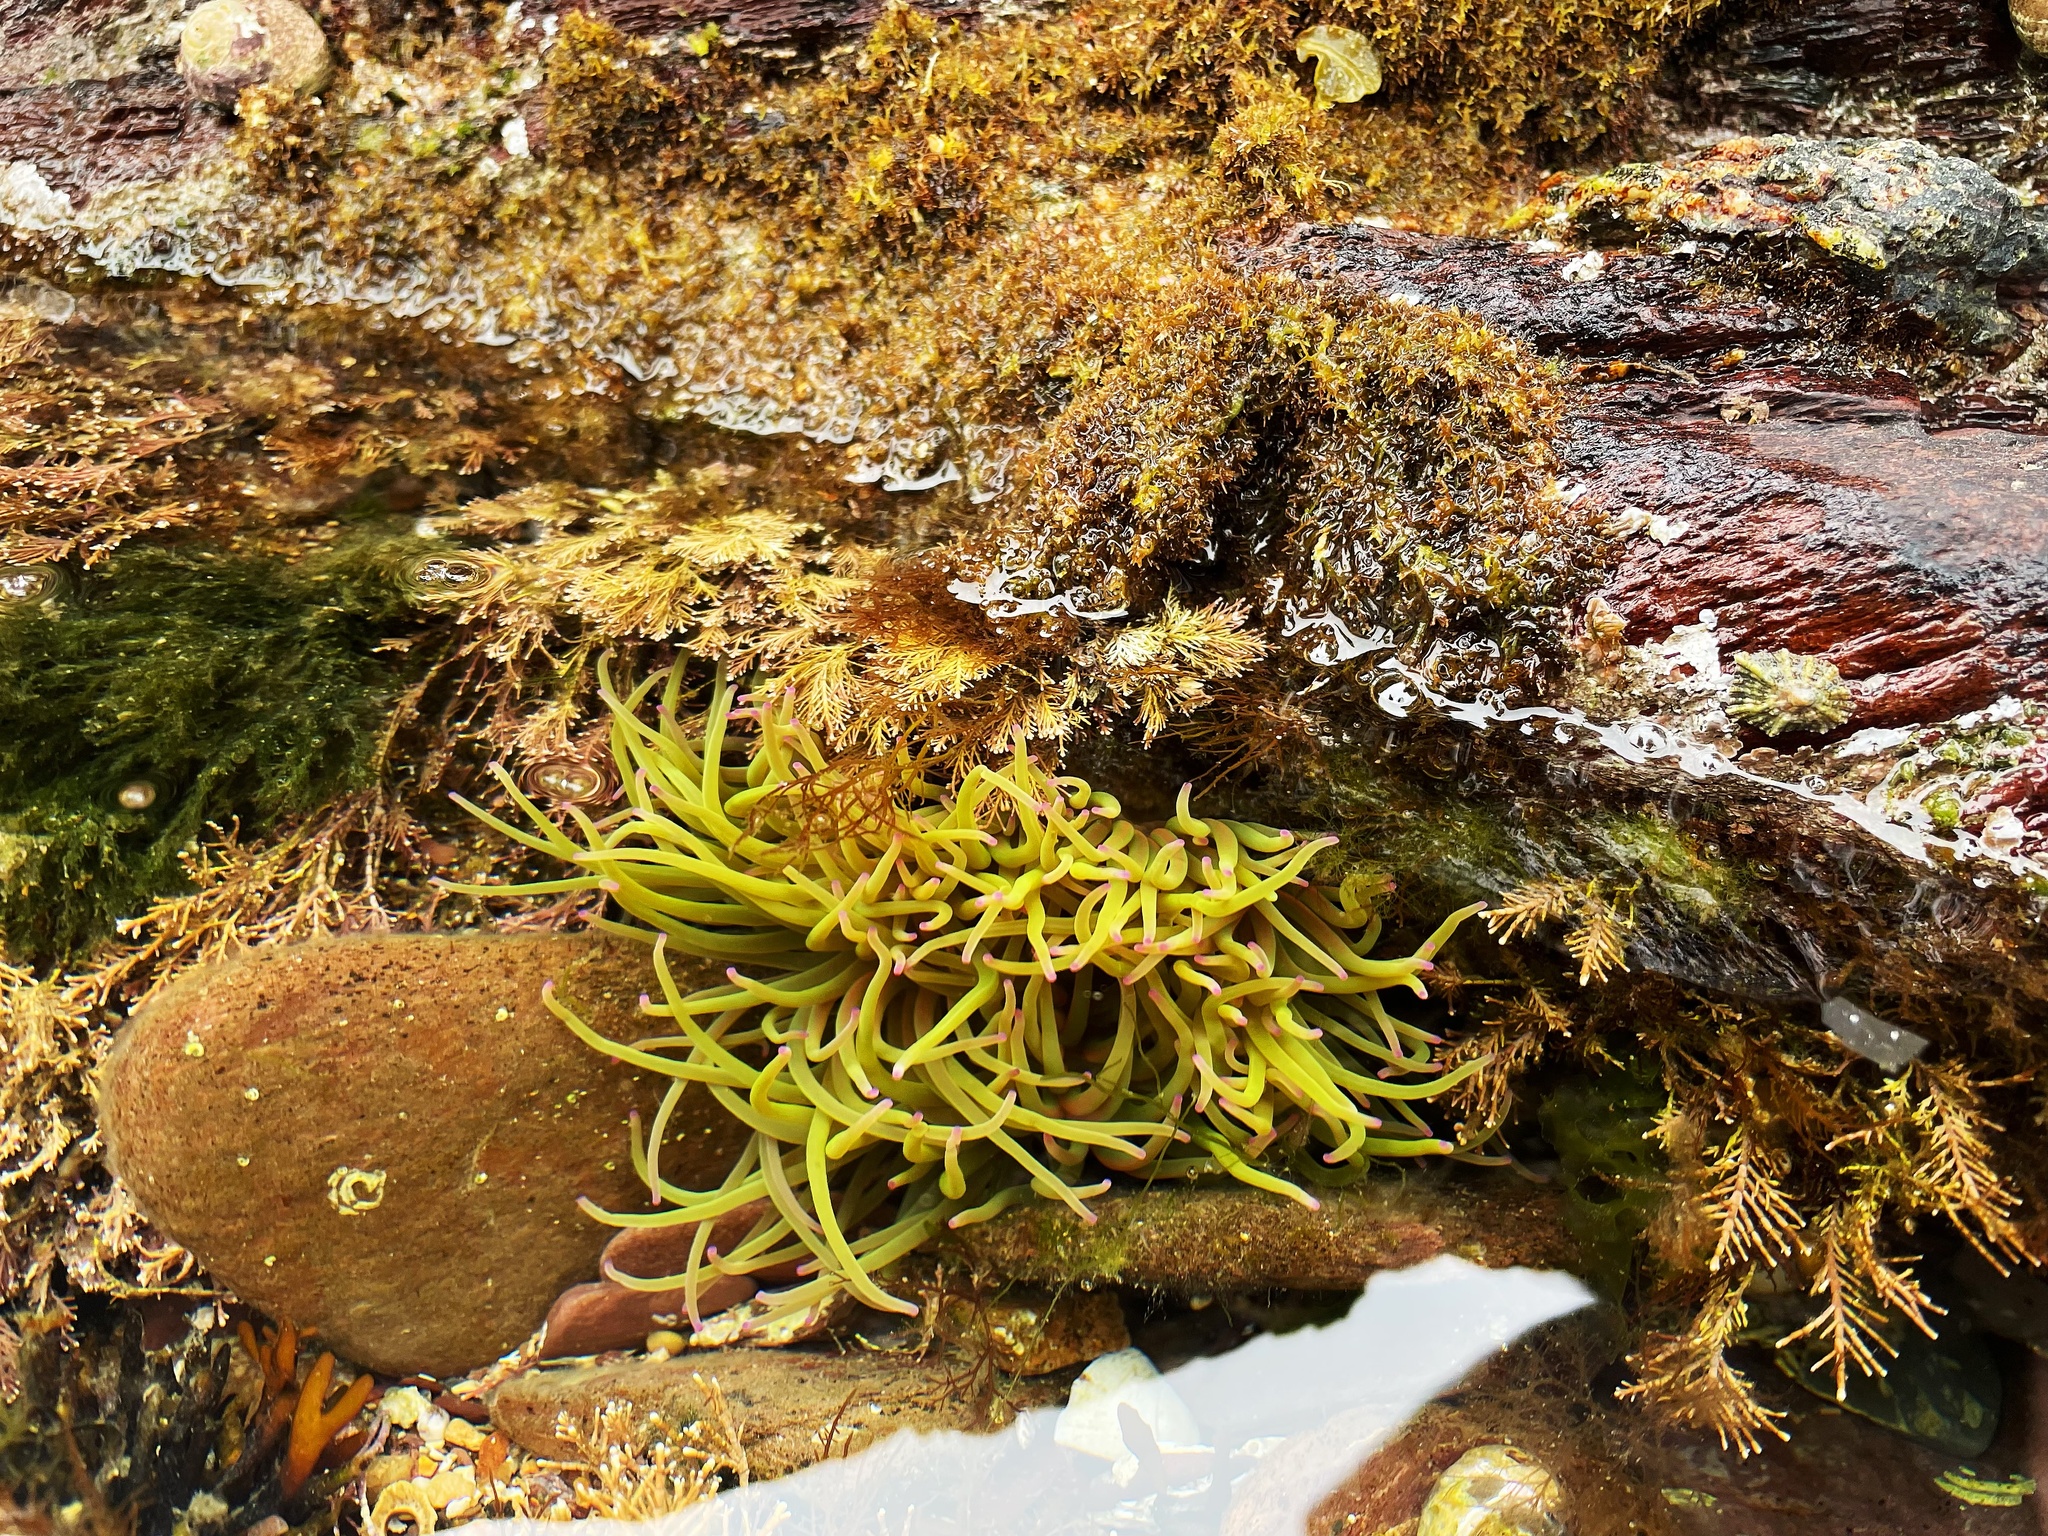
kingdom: Animalia
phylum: Cnidaria
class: Anthozoa
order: Actiniaria
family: Actiniidae
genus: Anemonia
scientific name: Anemonia viridis
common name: Snakelocks anemone
